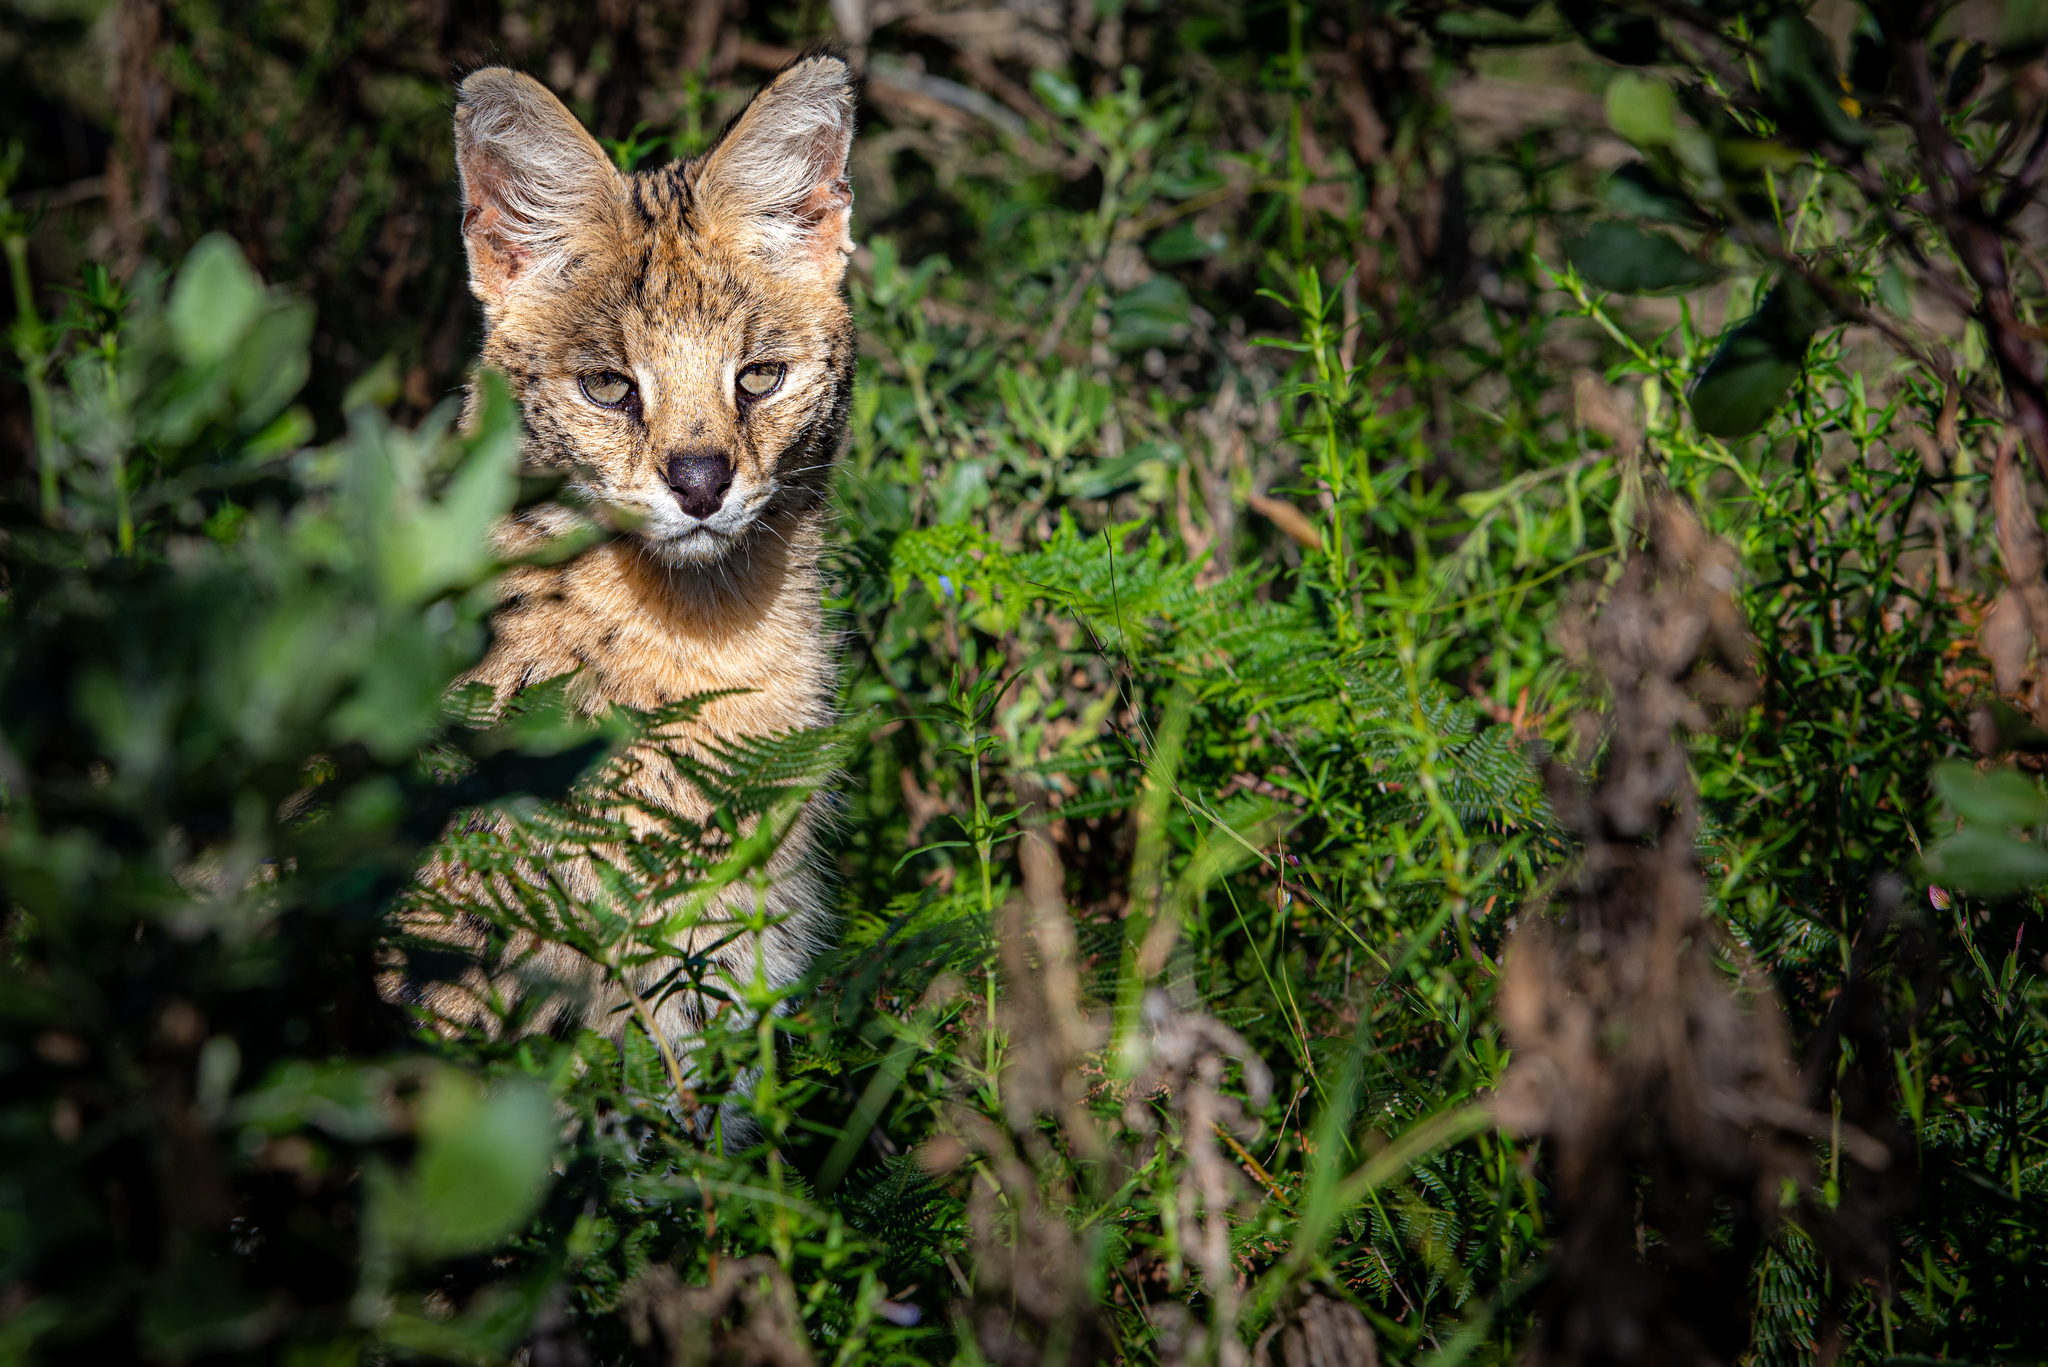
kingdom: Animalia
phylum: Chordata
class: Mammalia
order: Carnivora
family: Felidae
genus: Leptailurus
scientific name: Leptailurus serval
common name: Serval
